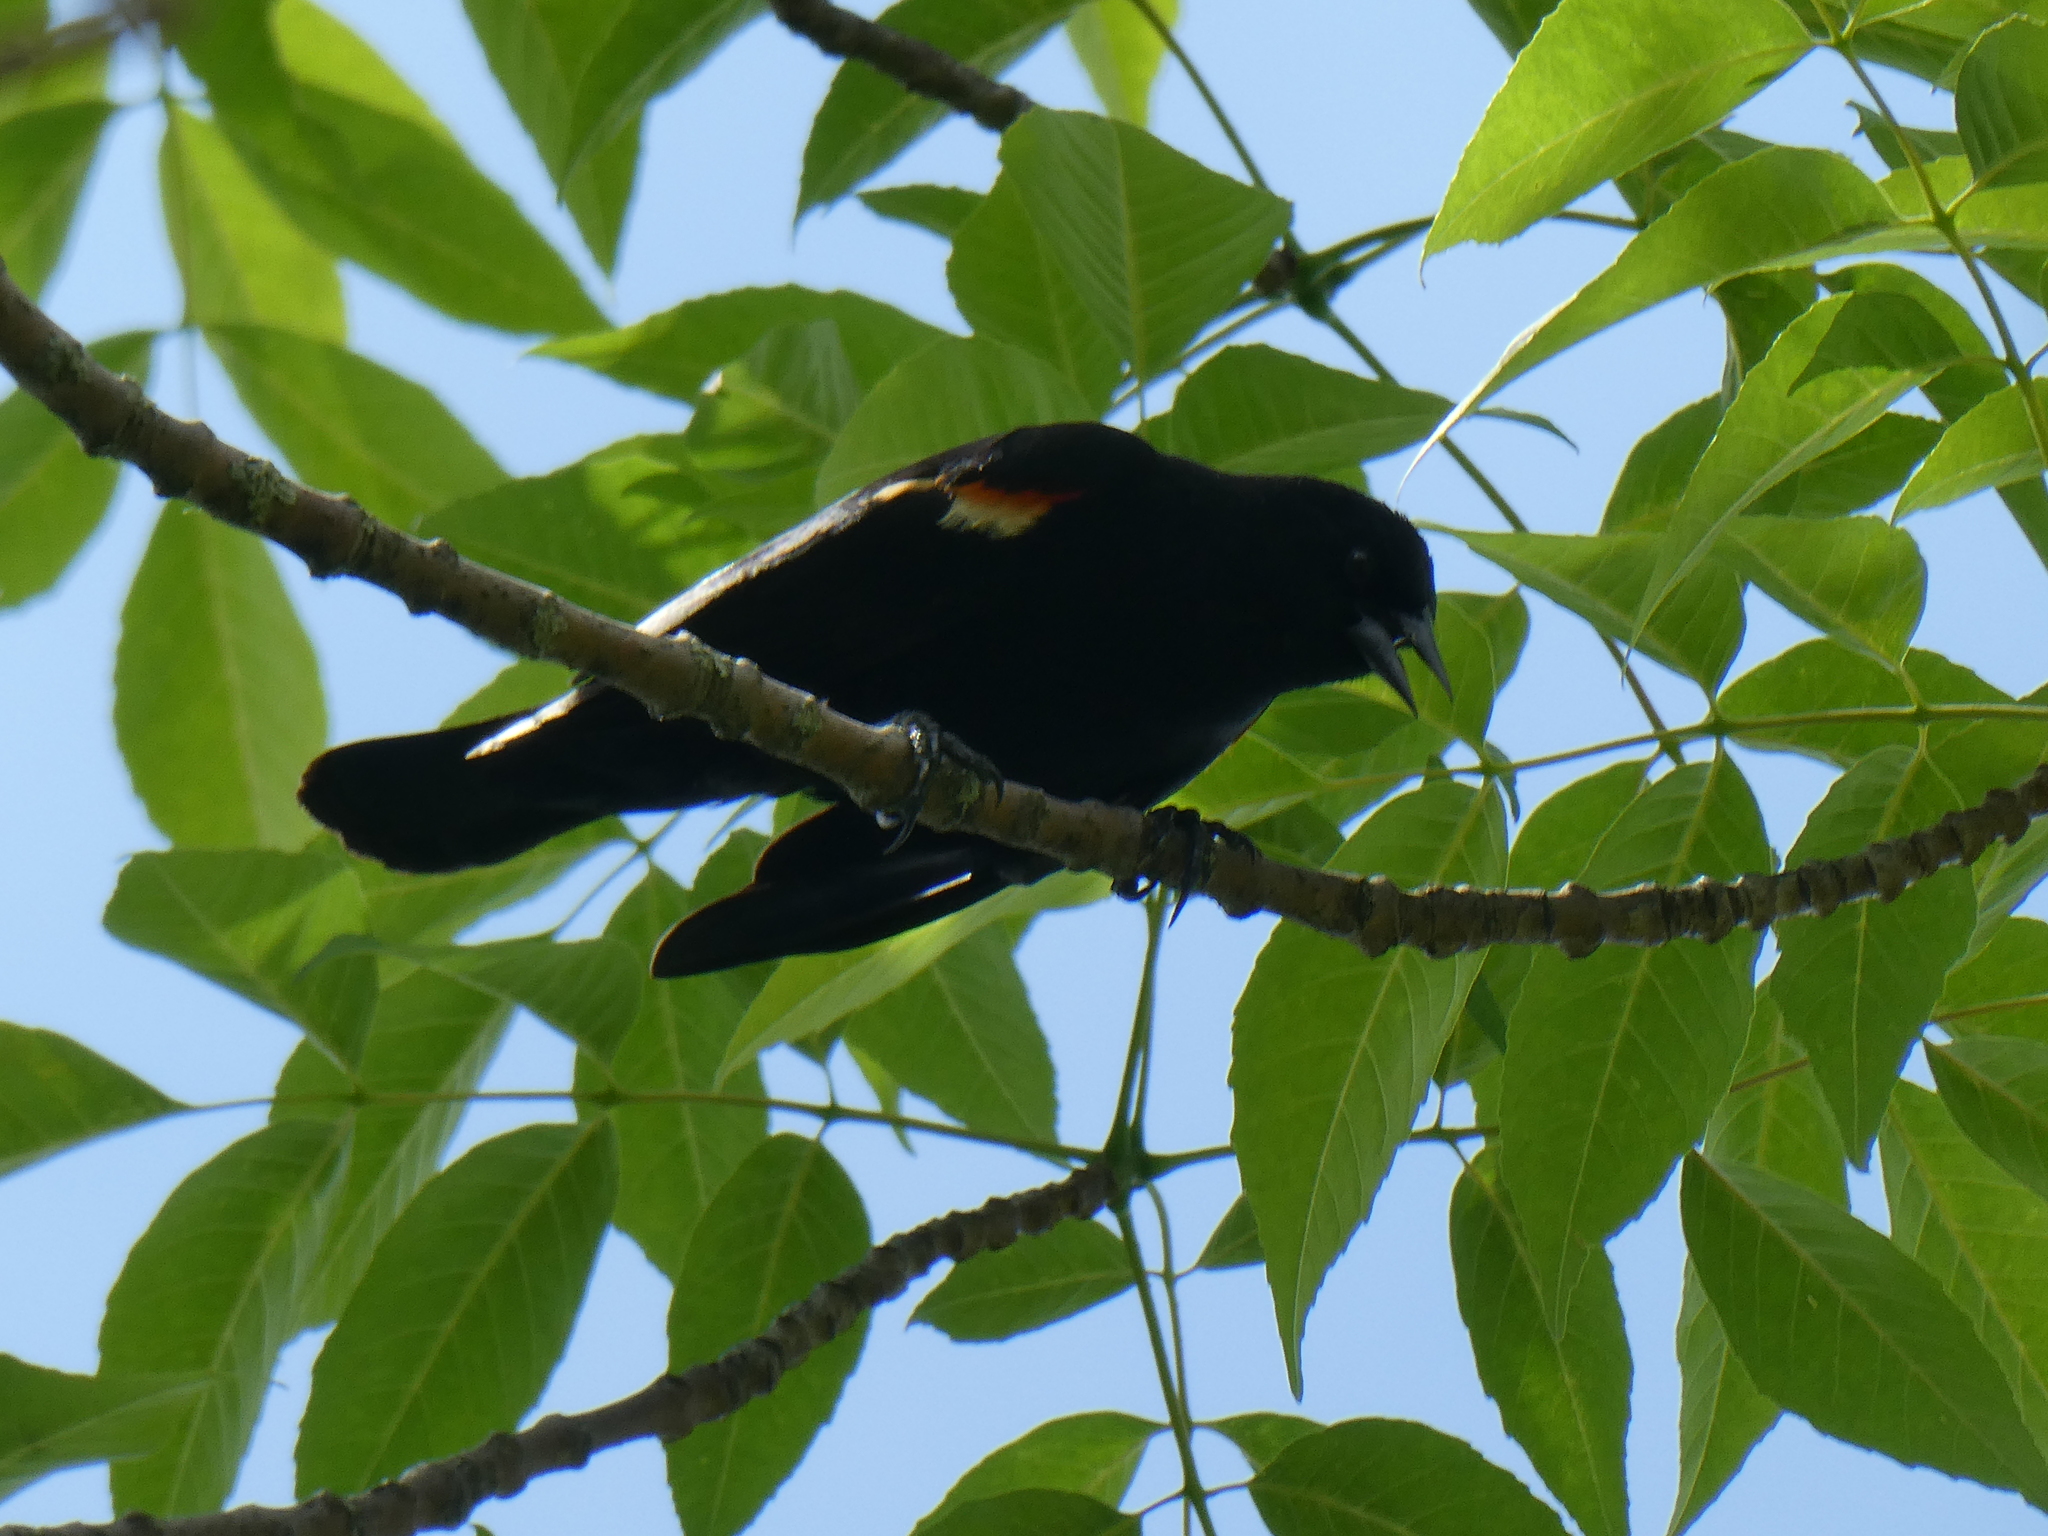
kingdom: Animalia
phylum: Chordata
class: Aves
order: Passeriformes
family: Icteridae
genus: Agelaius
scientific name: Agelaius phoeniceus
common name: Red-winged blackbird
